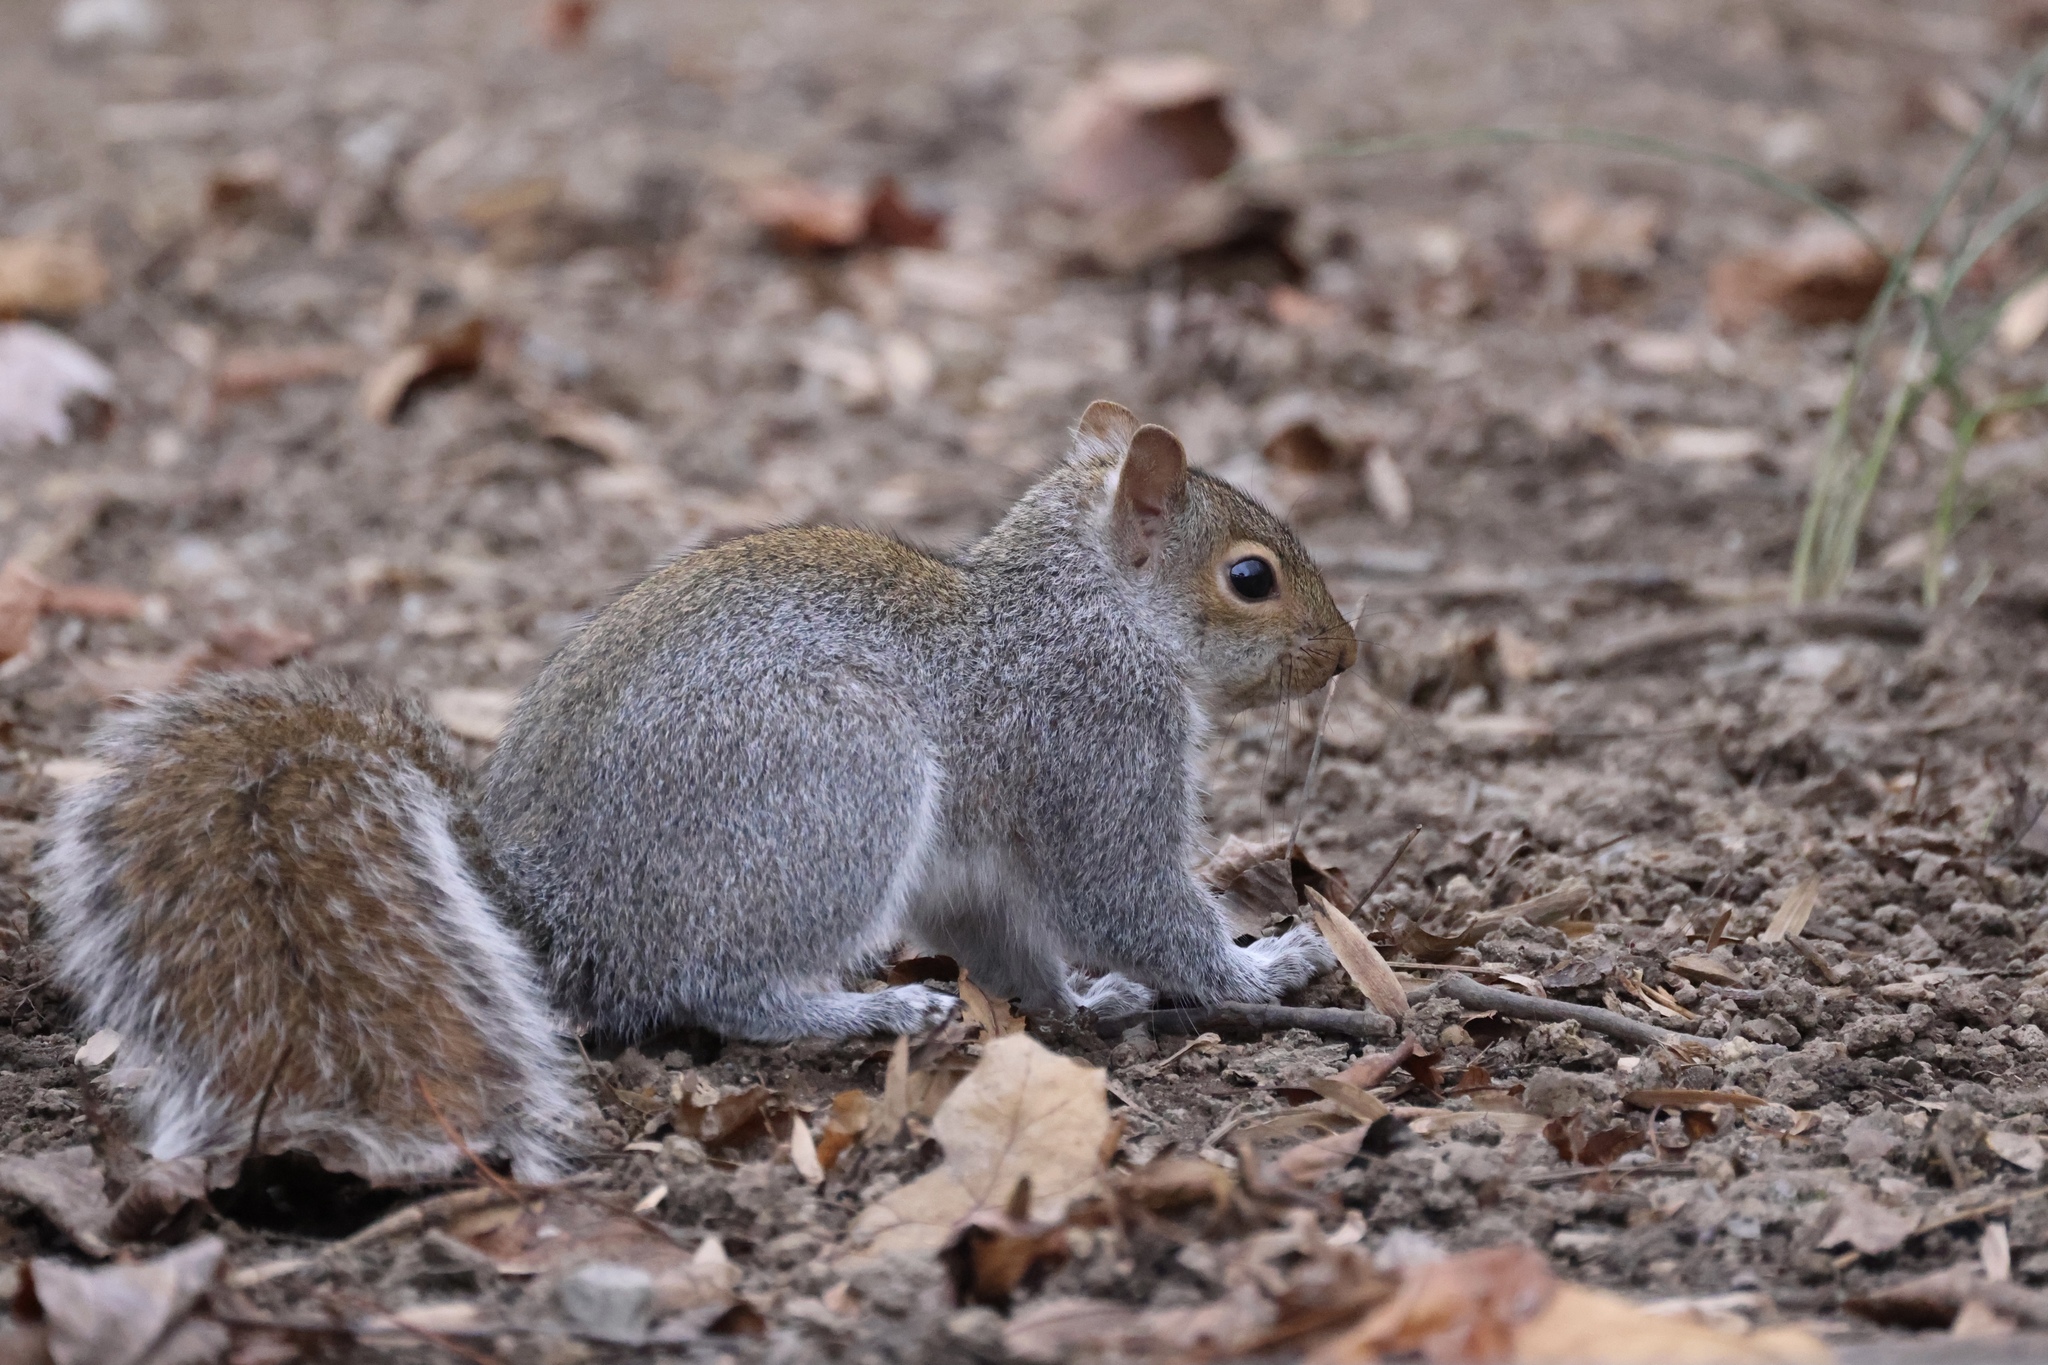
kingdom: Animalia
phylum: Chordata
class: Mammalia
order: Rodentia
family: Sciuridae
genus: Sciurus
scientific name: Sciurus carolinensis
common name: Eastern gray squirrel
